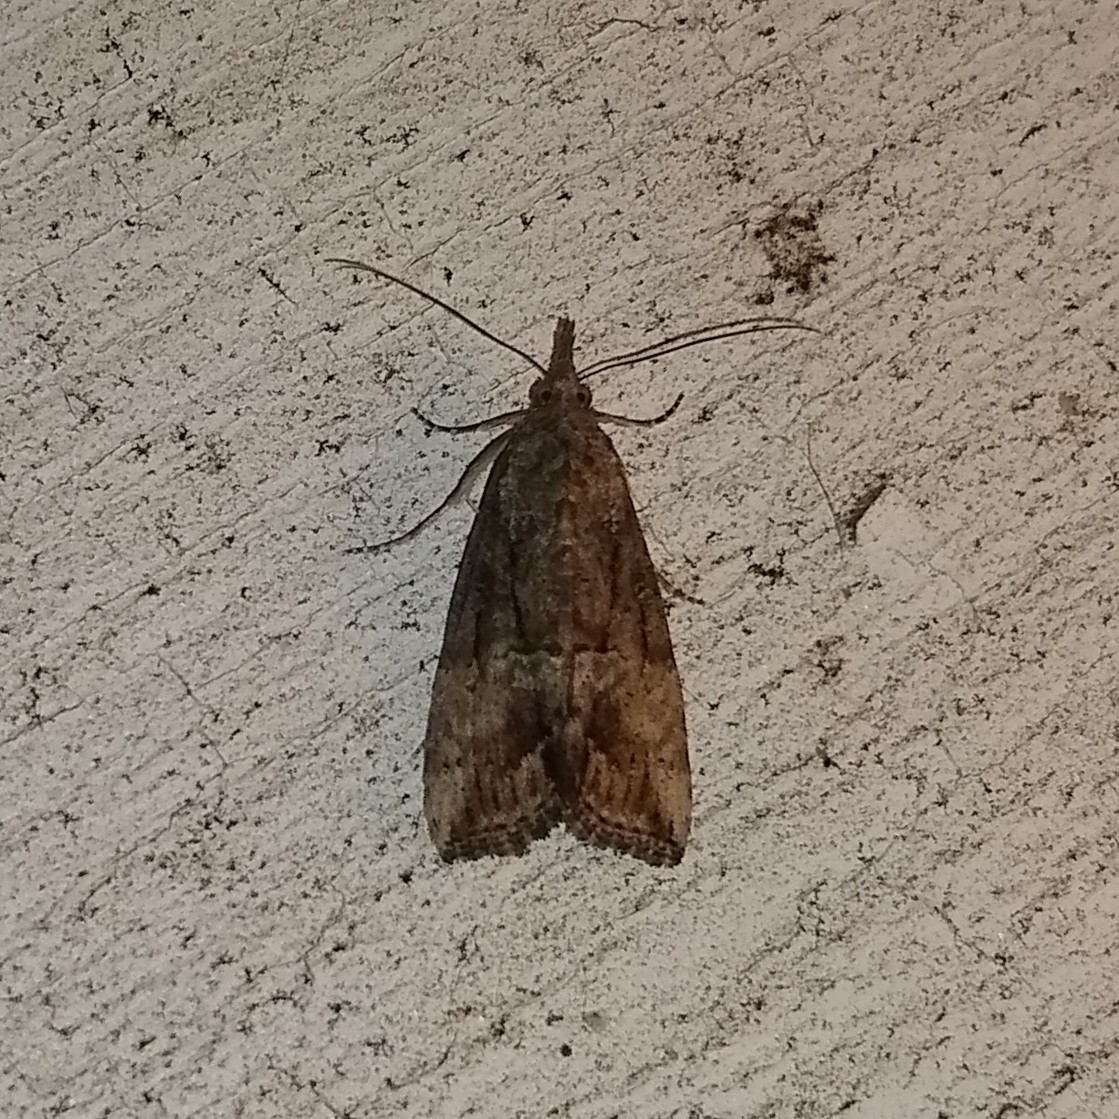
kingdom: Animalia
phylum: Arthropoda
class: Insecta
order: Lepidoptera
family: Erebidae
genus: Hypena
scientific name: Hypena scabra
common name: Green cloverworm
